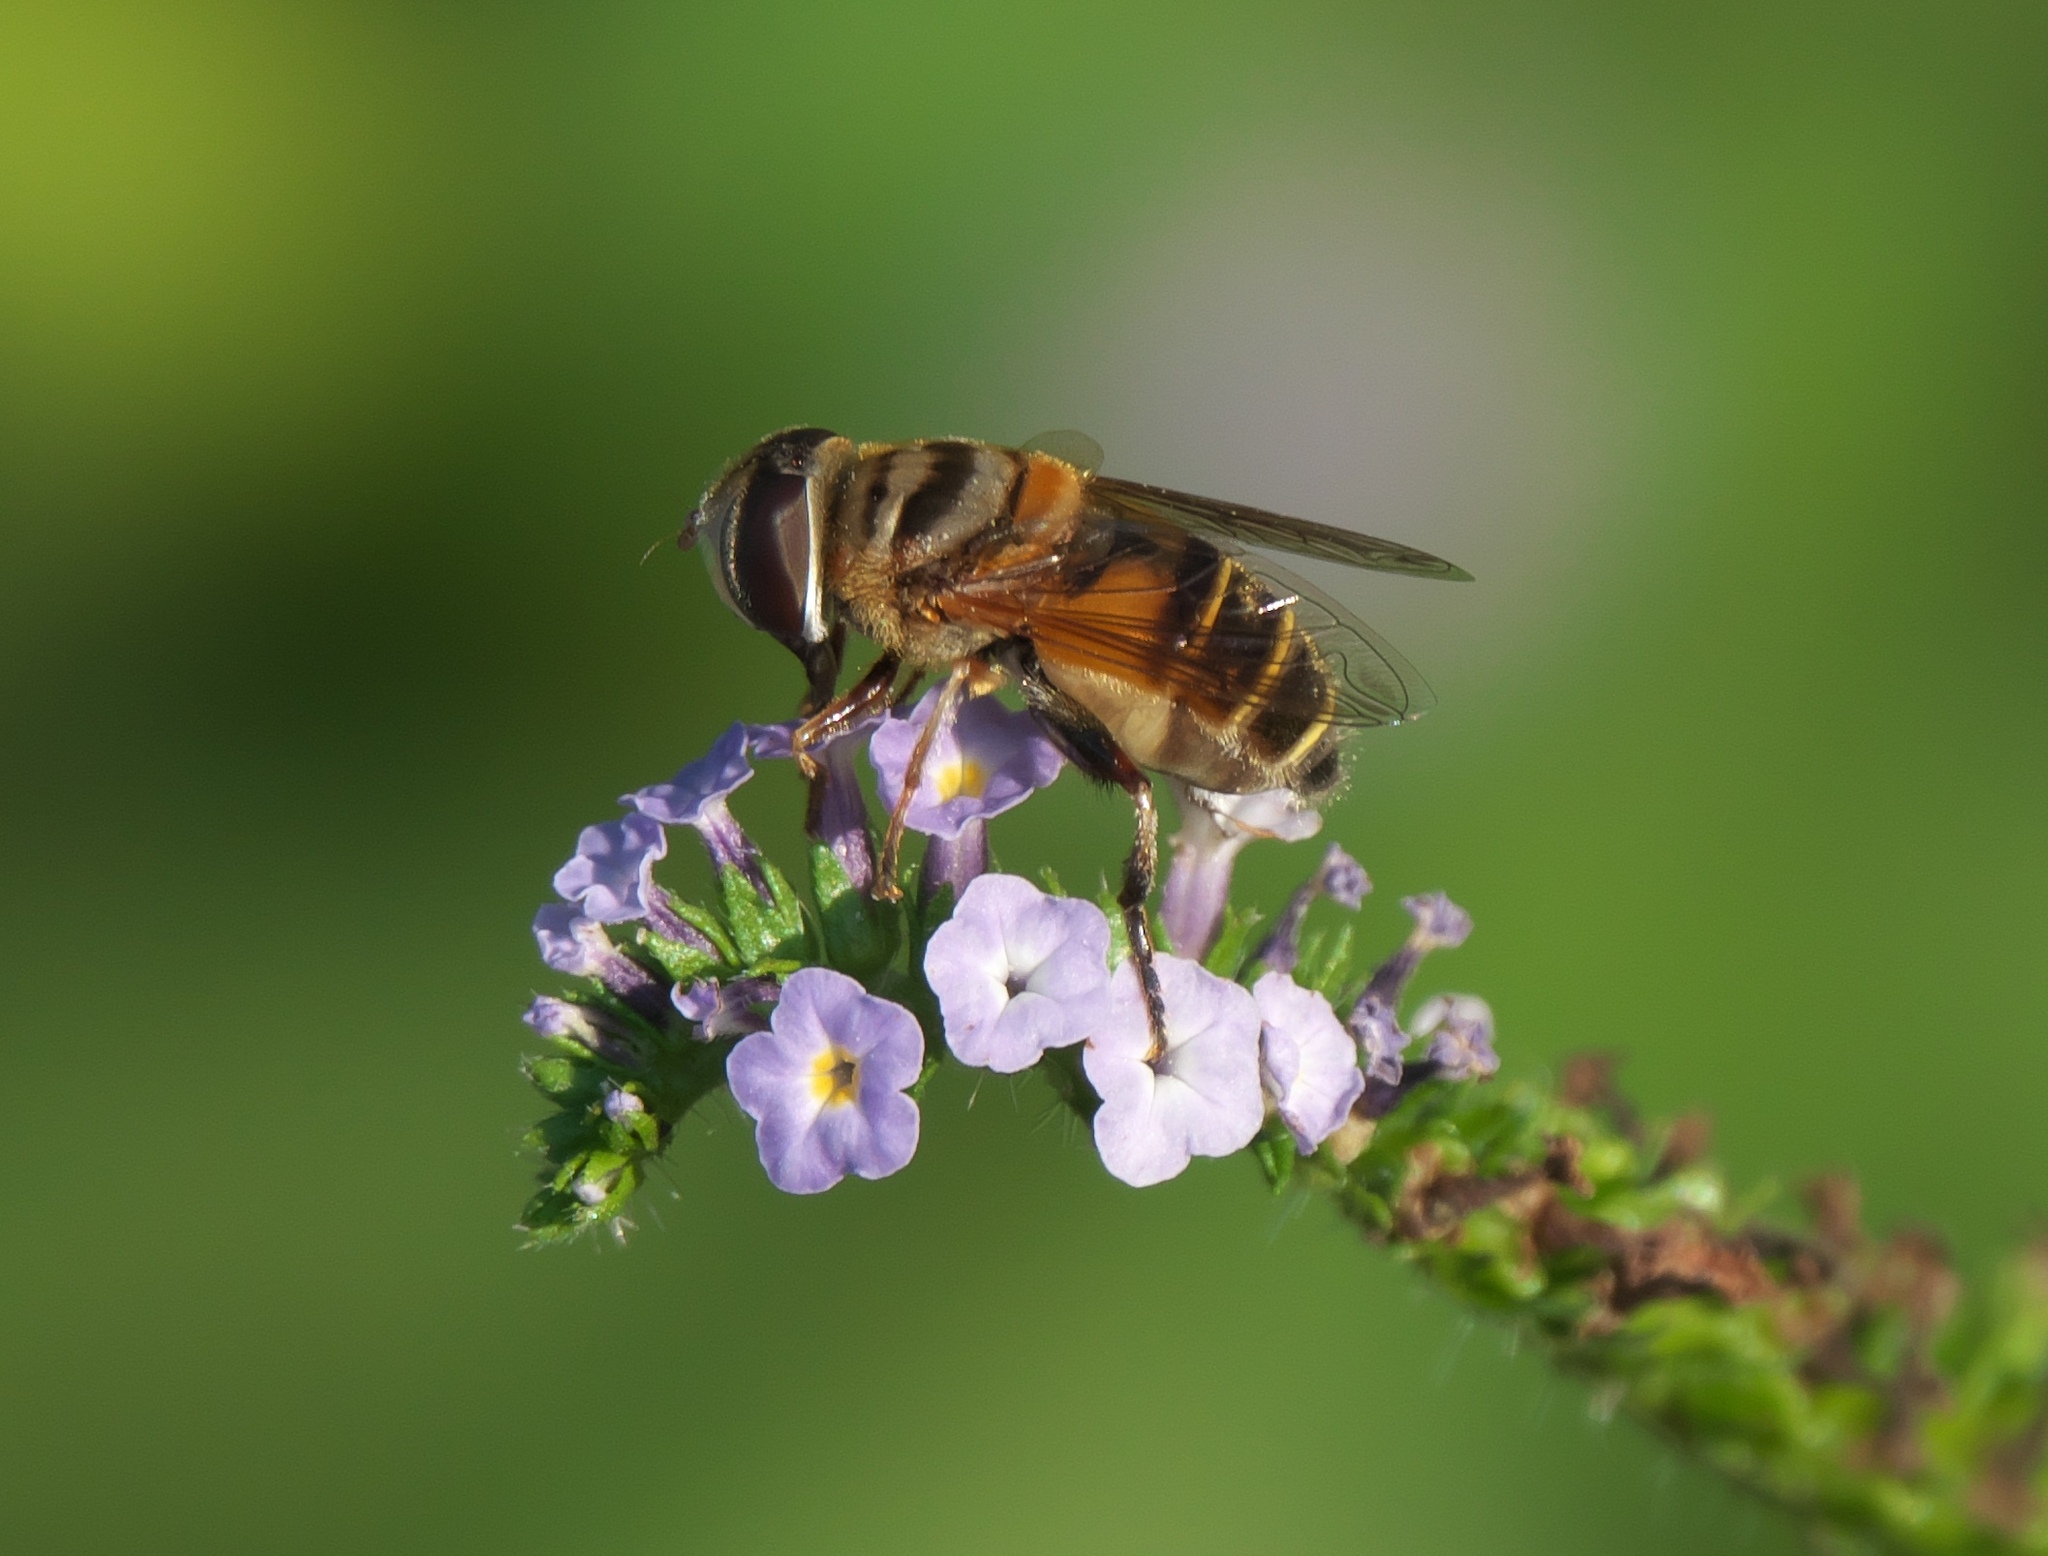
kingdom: Animalia
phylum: Arthropoda
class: Insecta
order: Diptera
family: Syrphidae
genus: Palpada
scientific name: Palpada vinetorum
